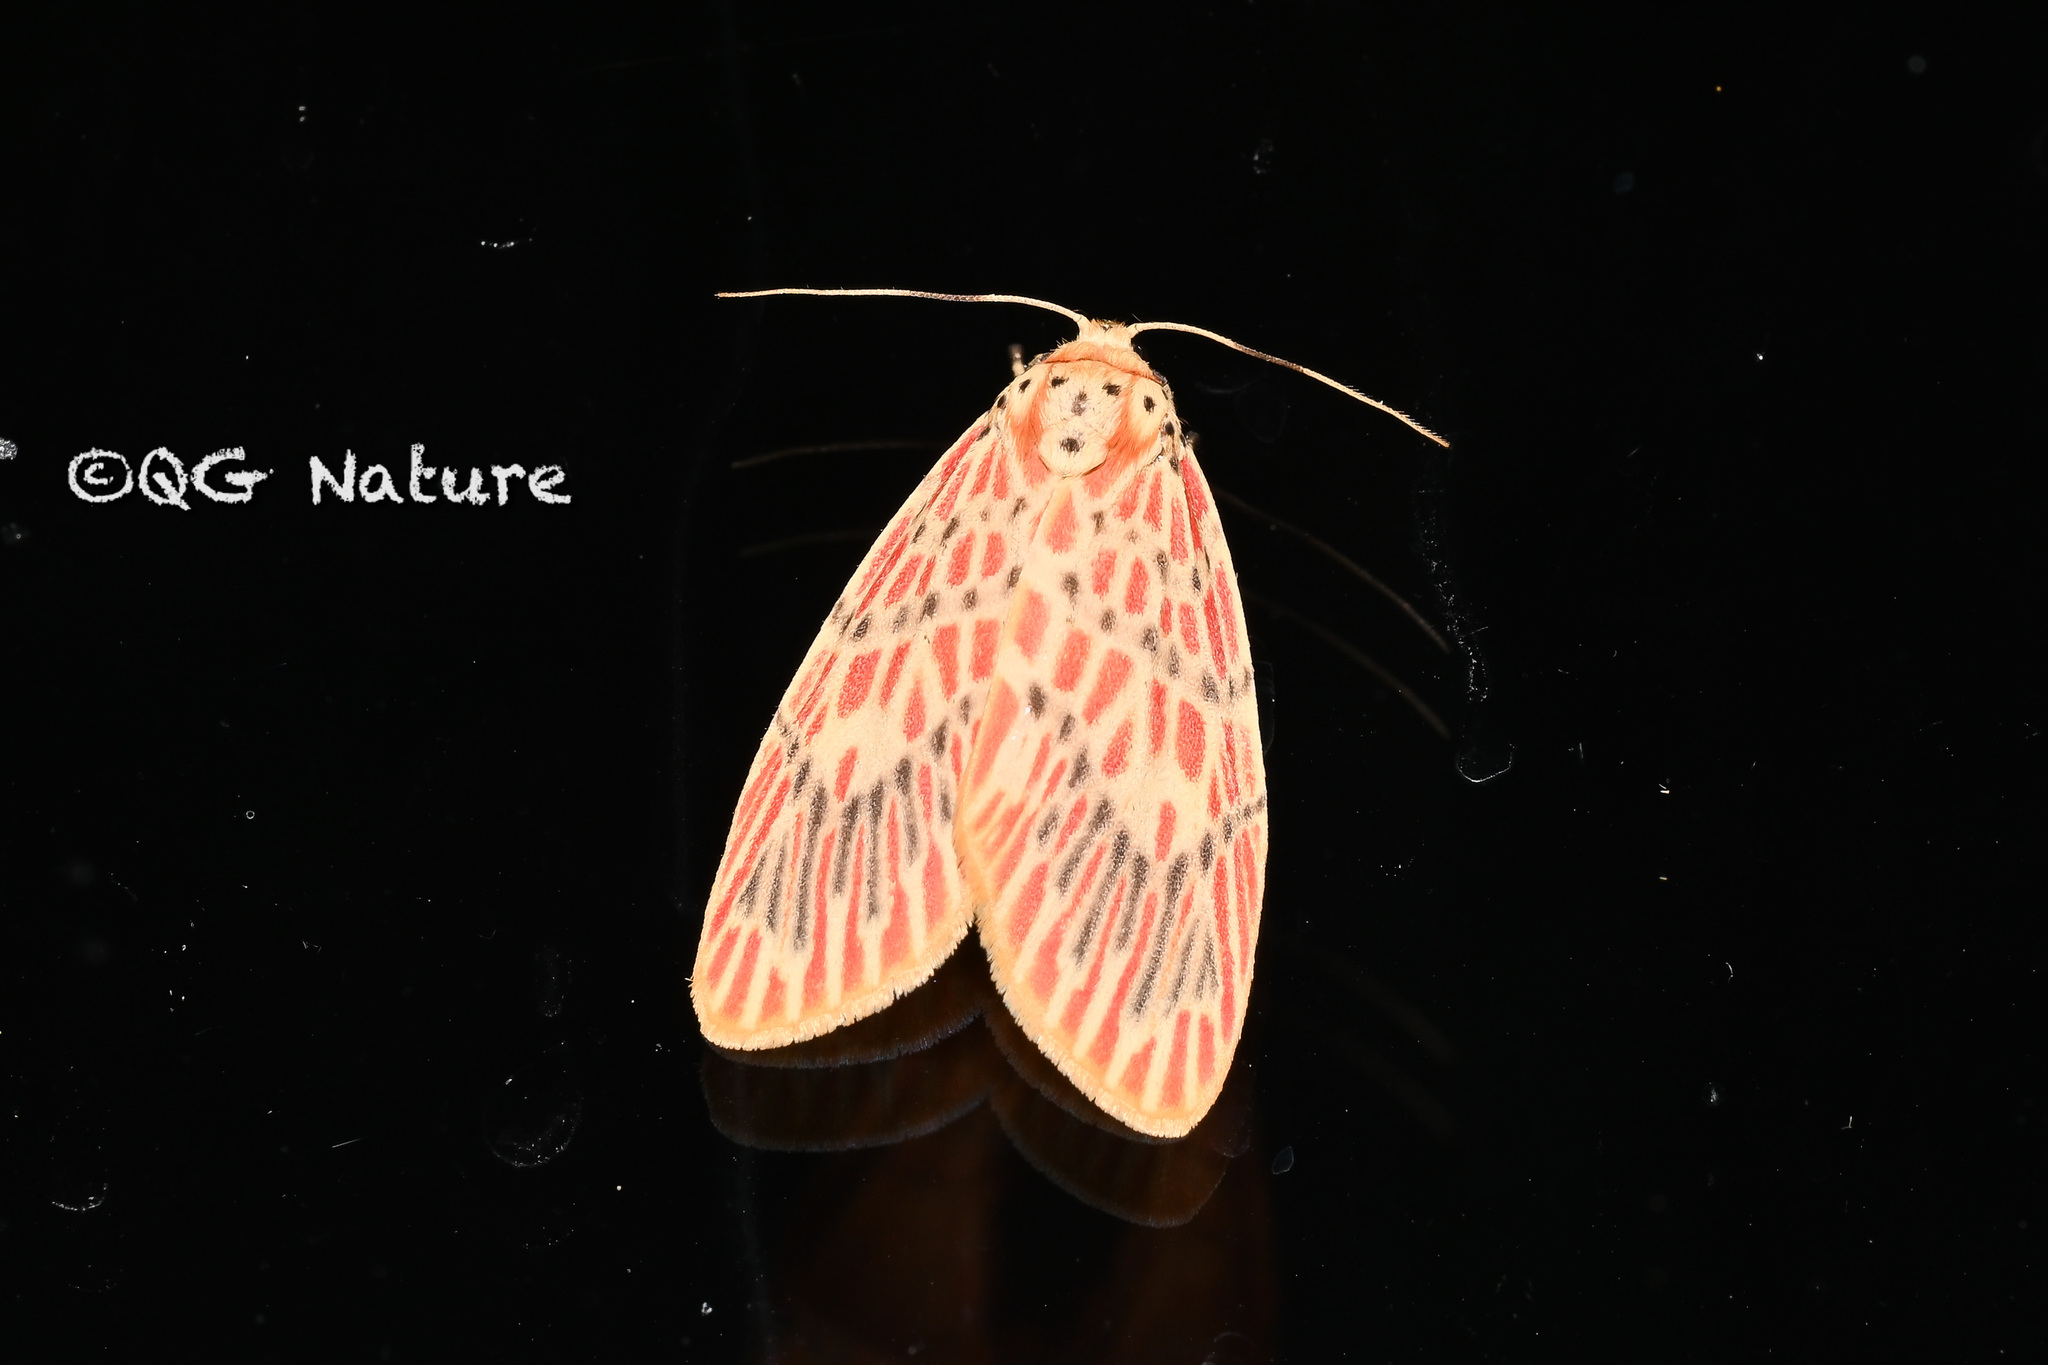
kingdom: Animalia
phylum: Arthropoda
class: Insecta
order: Lepidoptera
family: Erebidae
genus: Barsine
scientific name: Barsine orientalis
